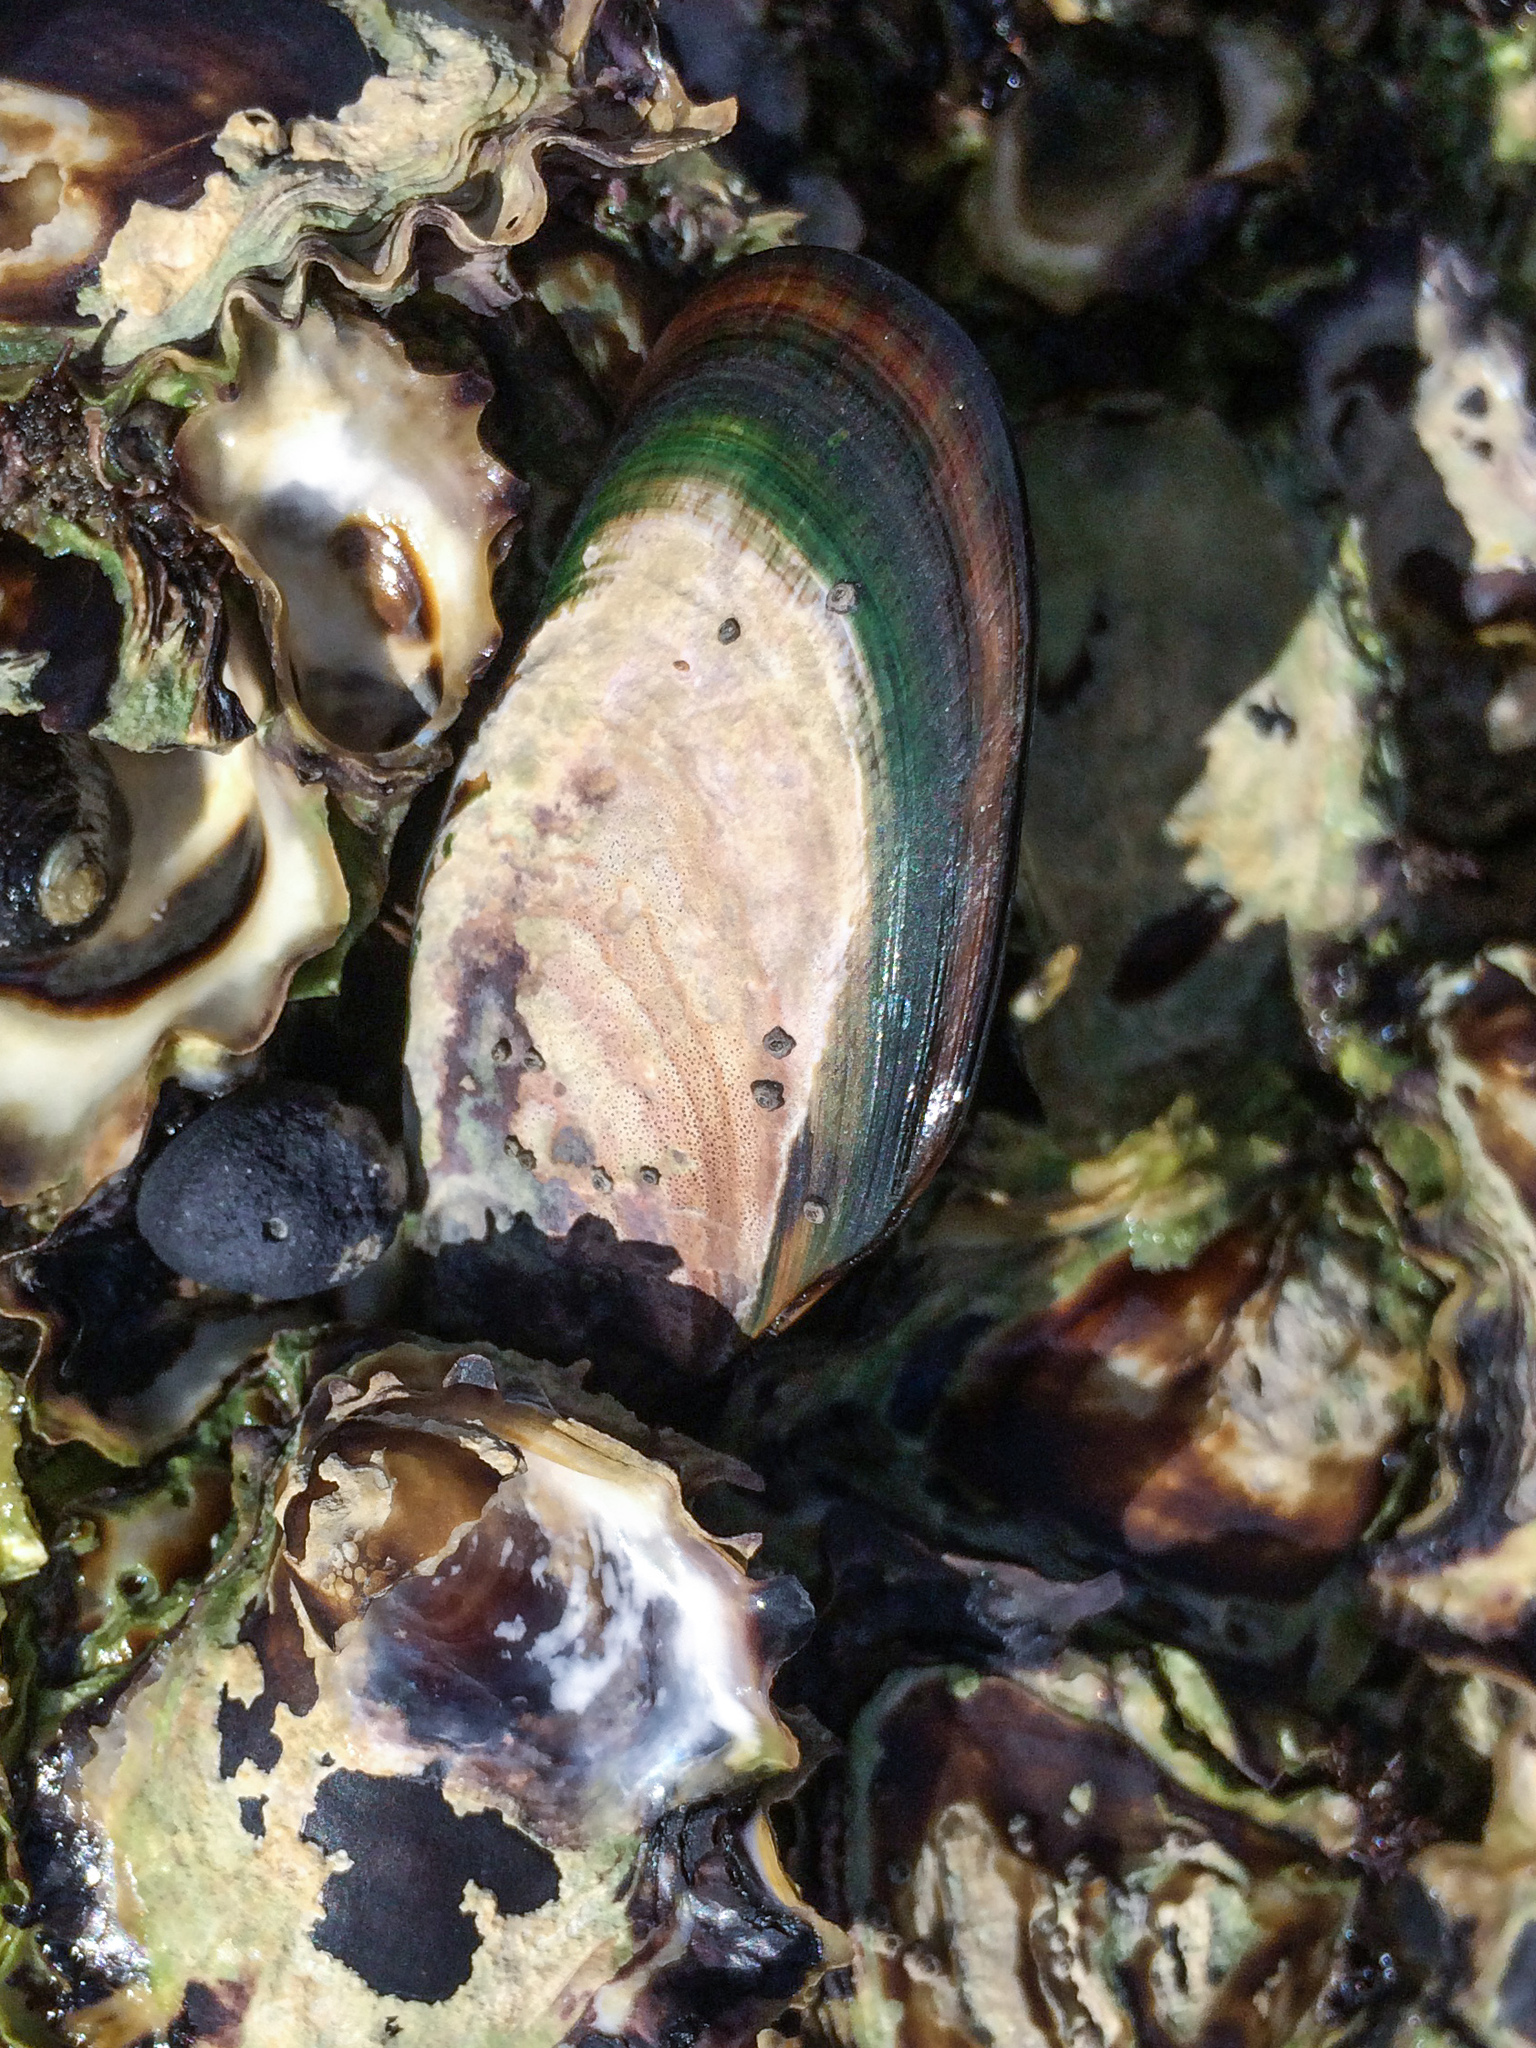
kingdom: Animalia
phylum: Mollusca
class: Bivalvia
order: Mytilida
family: Mytilidae
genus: Perna
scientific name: Perna canaliculus
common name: New zealand greenshelltm
